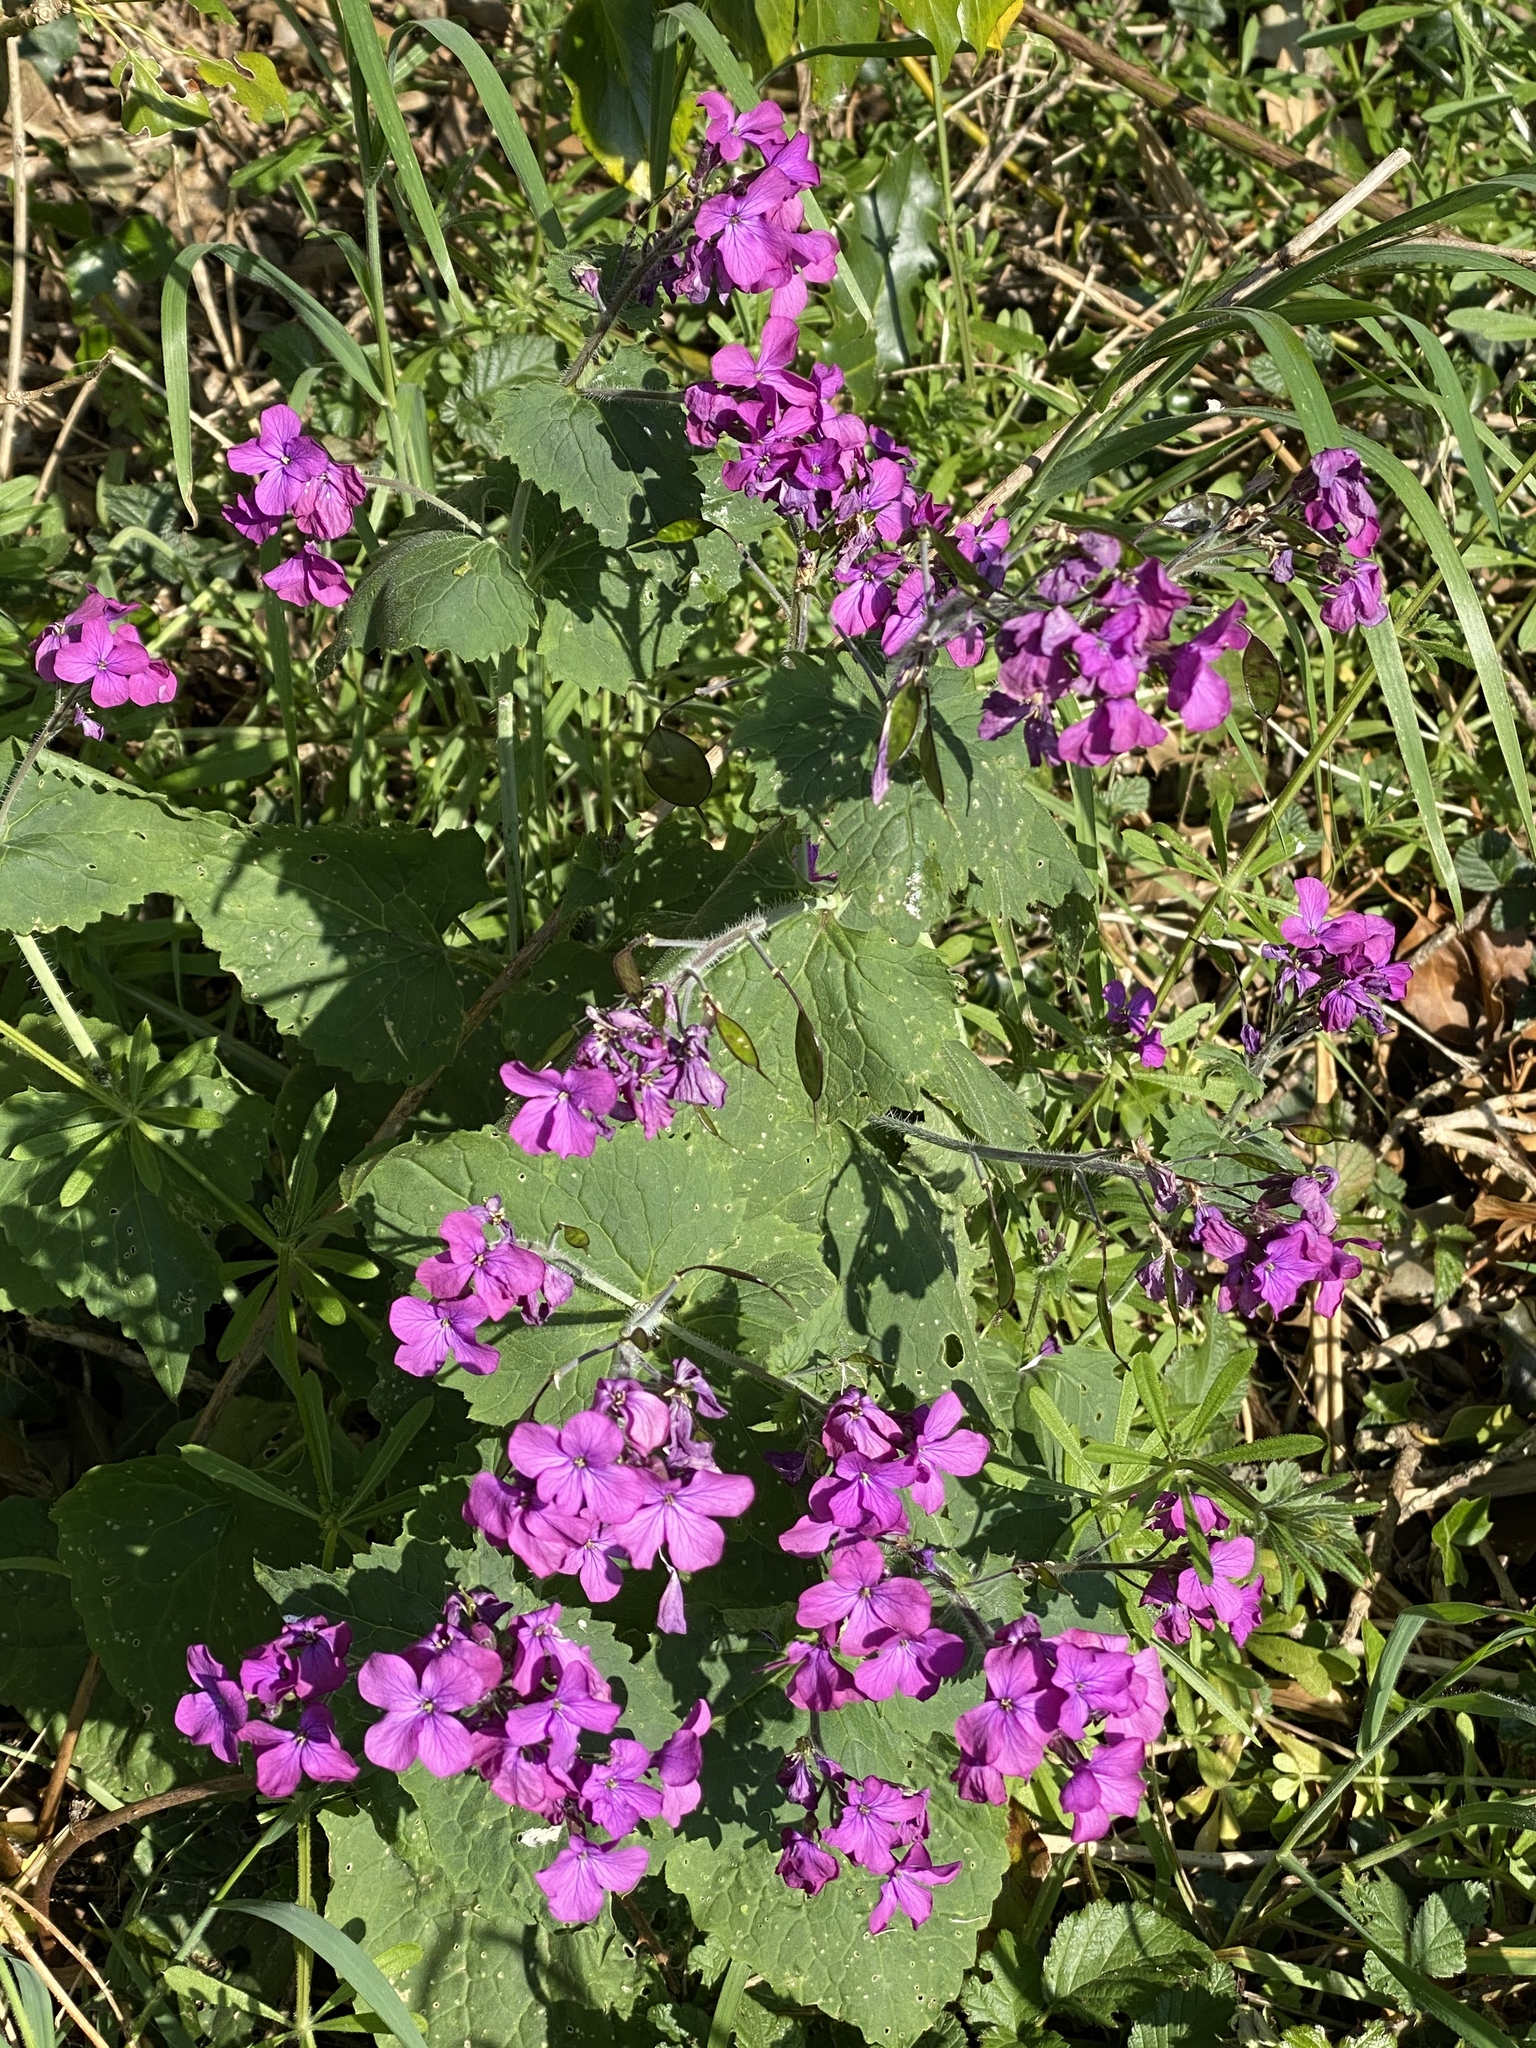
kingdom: Plantae
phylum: Tracheophyta
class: Magnoliopsida
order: Brassicales
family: Brassicaceae
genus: Lunaria
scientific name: Lunaria annua
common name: Honesty
